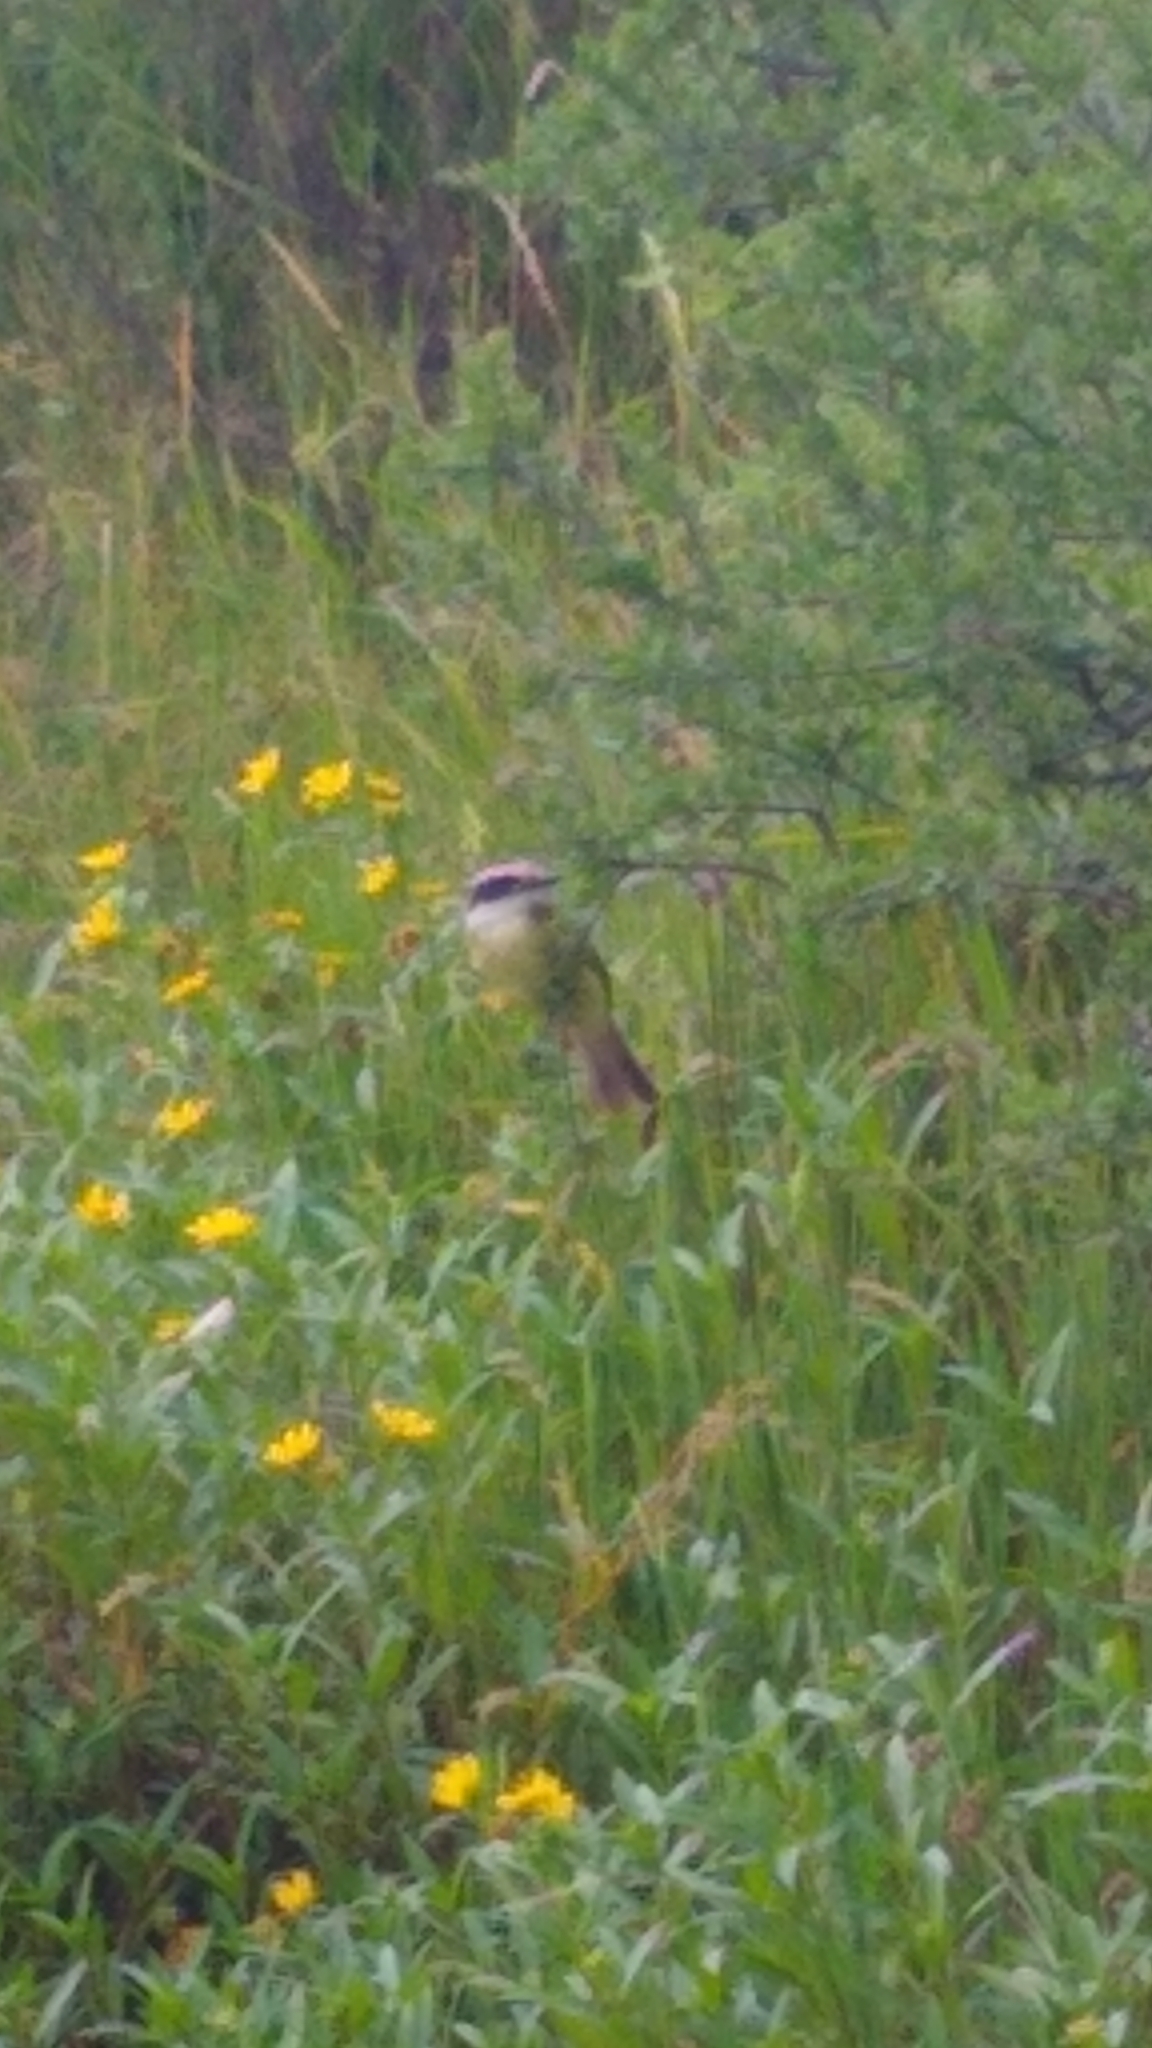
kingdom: Animalia
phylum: Chordata
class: Aves
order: Passeriformes
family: Tyrannidae
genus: Pitangus
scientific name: Pitangus sulphuratus
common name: Great kiskadee
